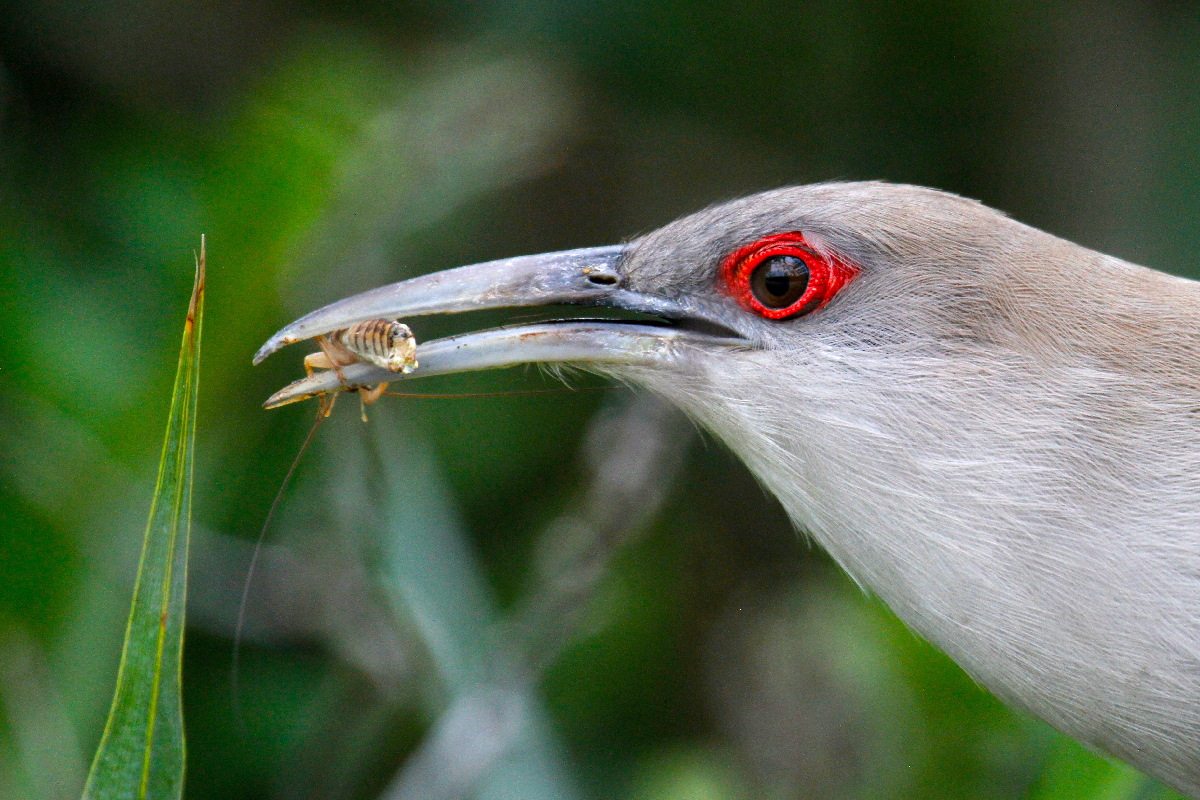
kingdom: Animalia
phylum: Chordata
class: Aves
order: Cuculiformes
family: Cuculidae
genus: Saurothera
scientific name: Saurothera merlini
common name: Great lizard-cuckoo
